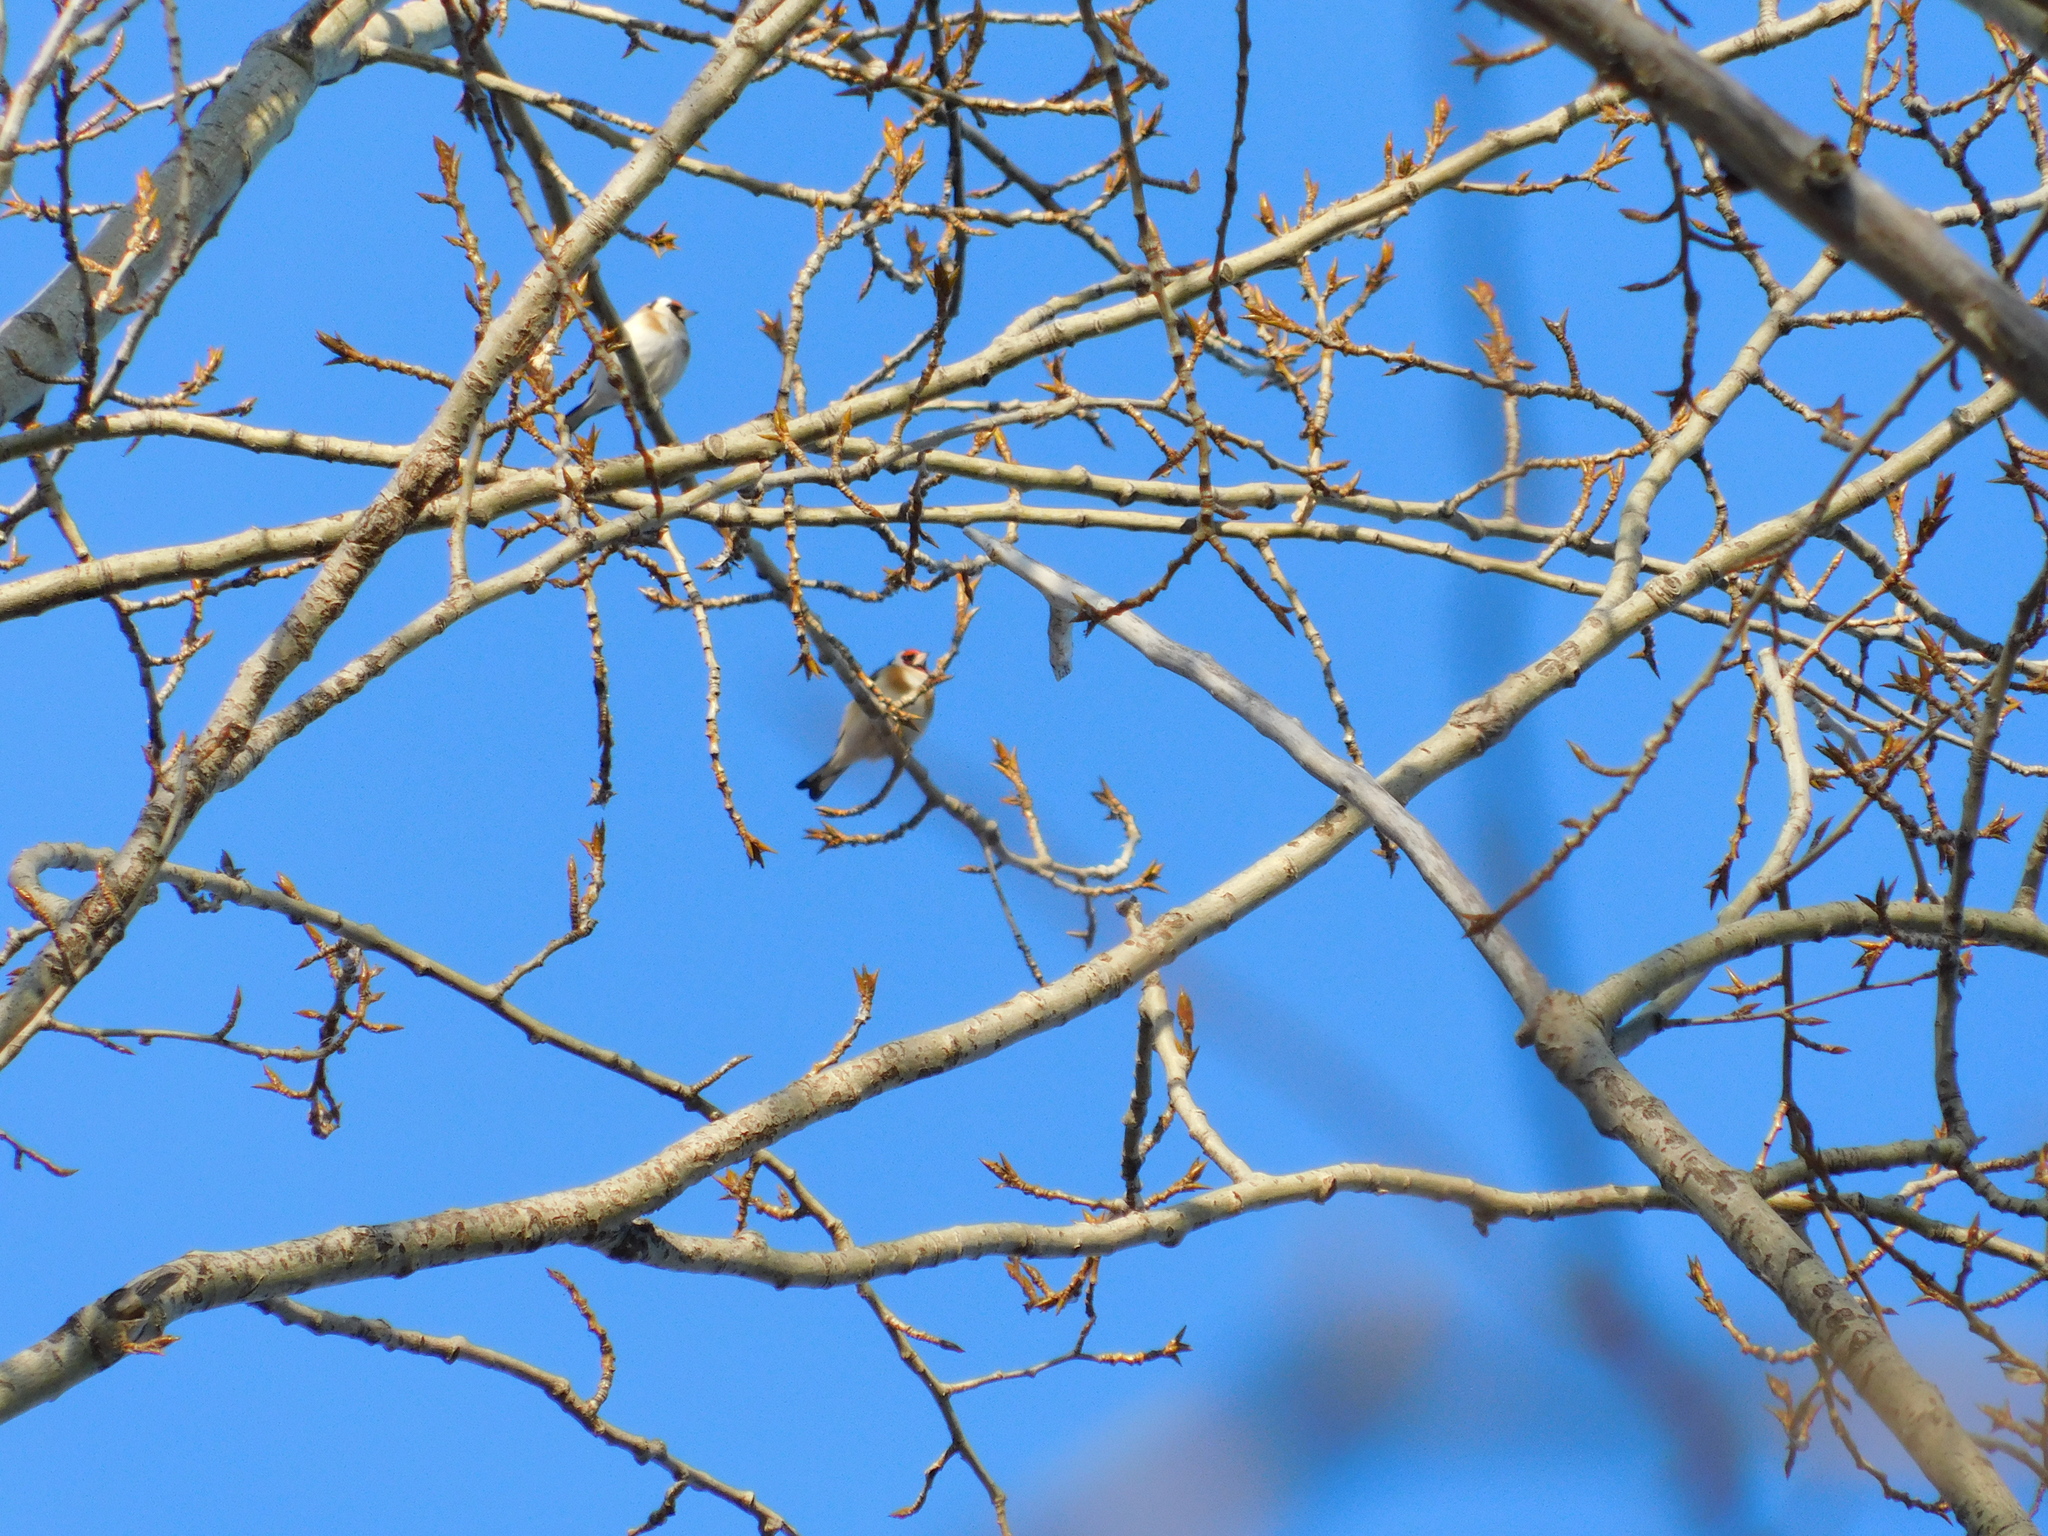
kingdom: Animalia
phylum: Chordata
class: Aves
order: Passeriformes
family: Fringillidae
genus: Carduelis
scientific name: Carduelis carduelis
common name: European goldfinch
